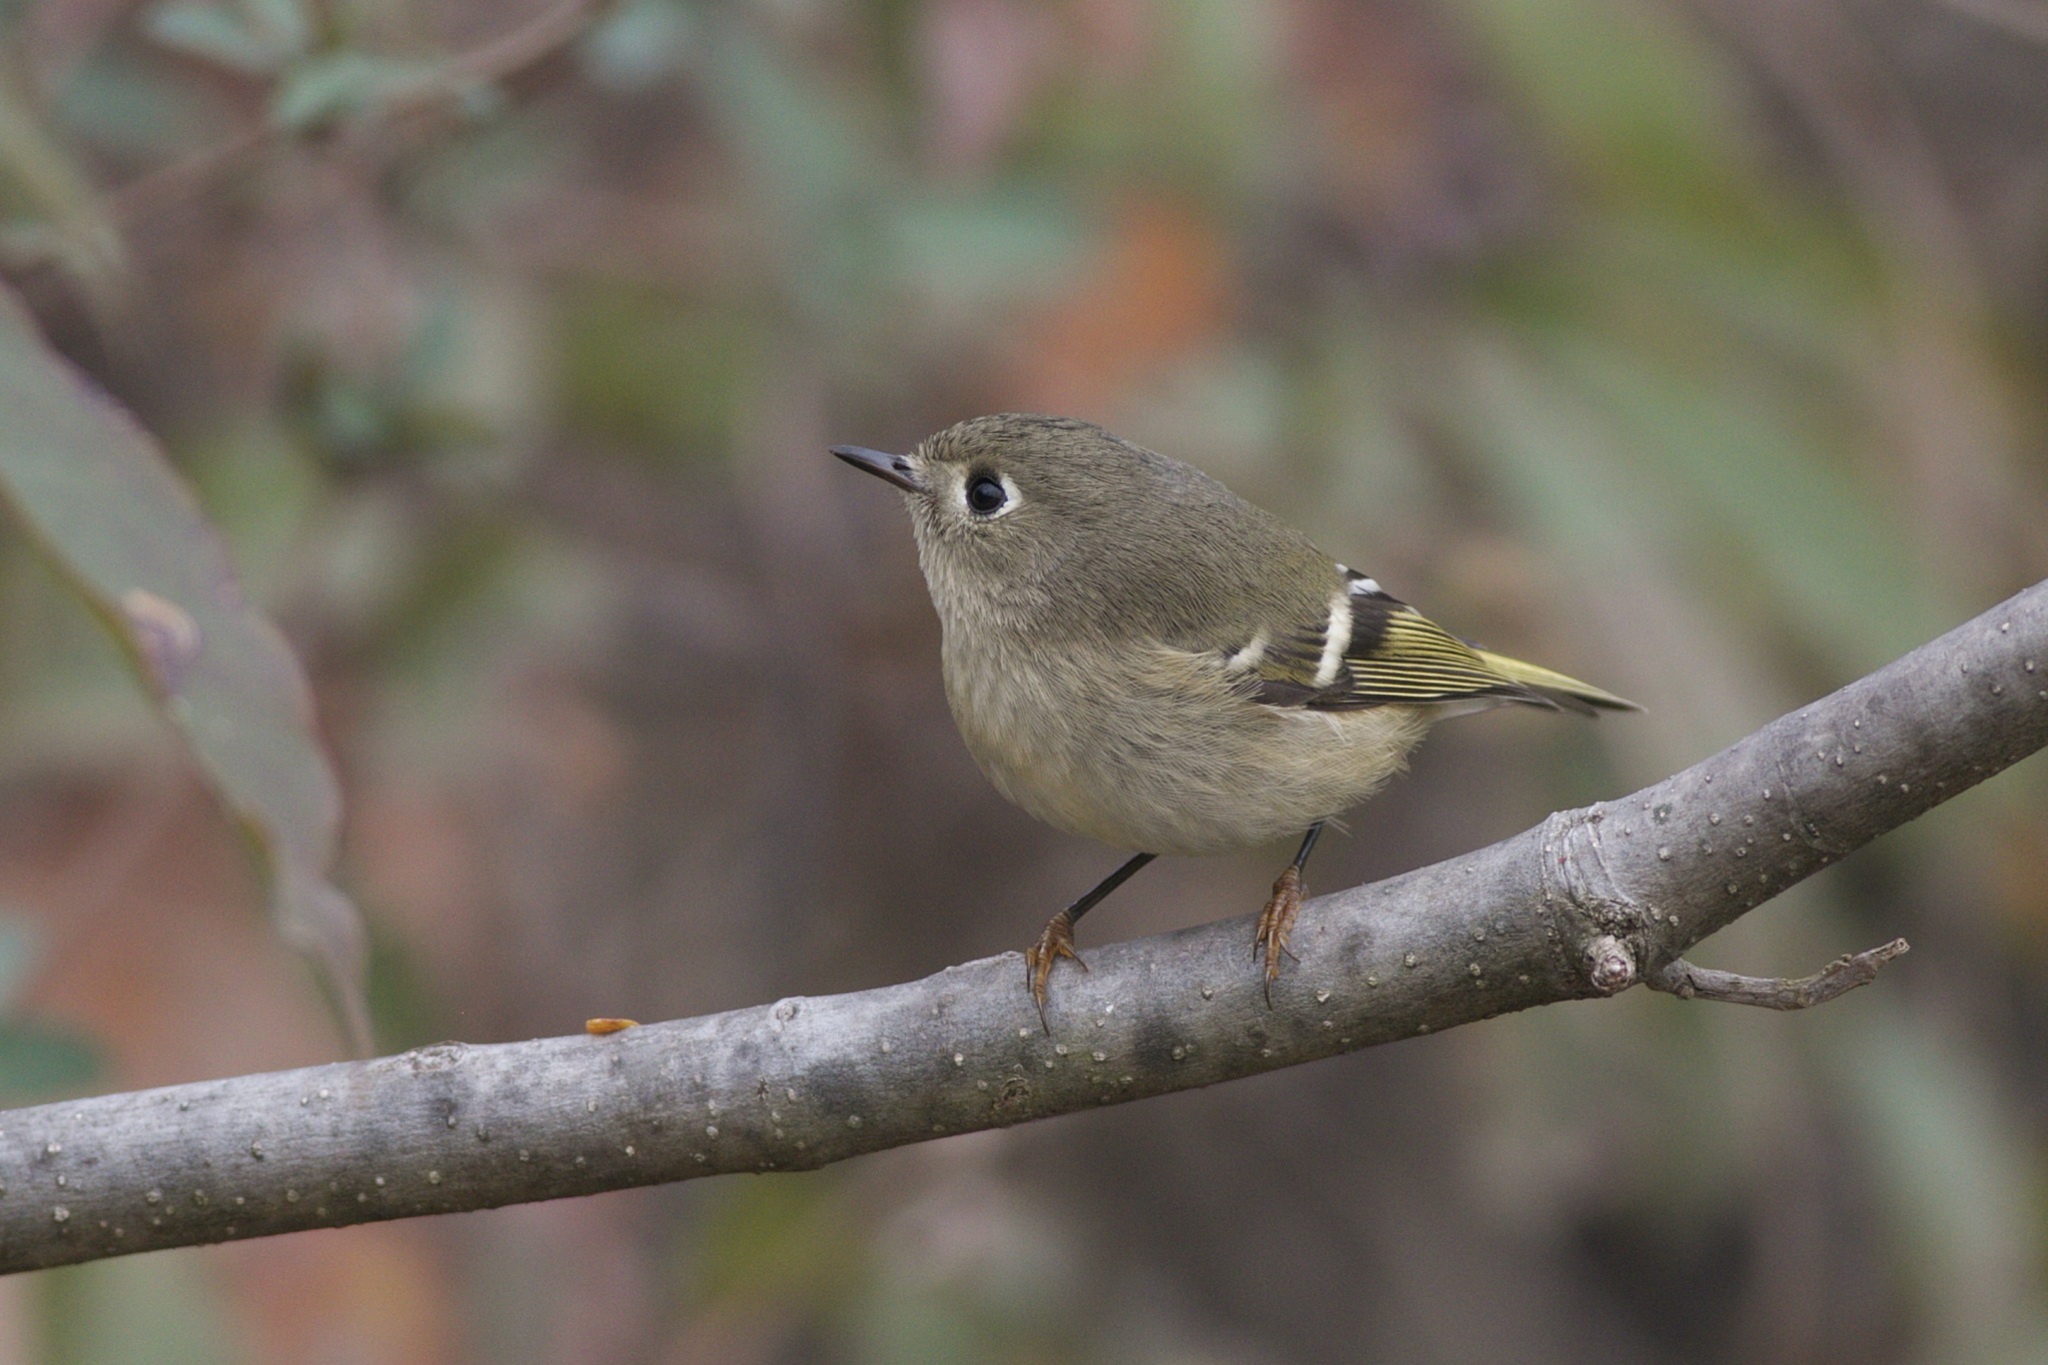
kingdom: Animalia
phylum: Chordata
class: Aves
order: Passeriformes
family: Regulidae
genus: Regulus
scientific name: Regulus calendula
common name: Ruby-crowned kinglet
